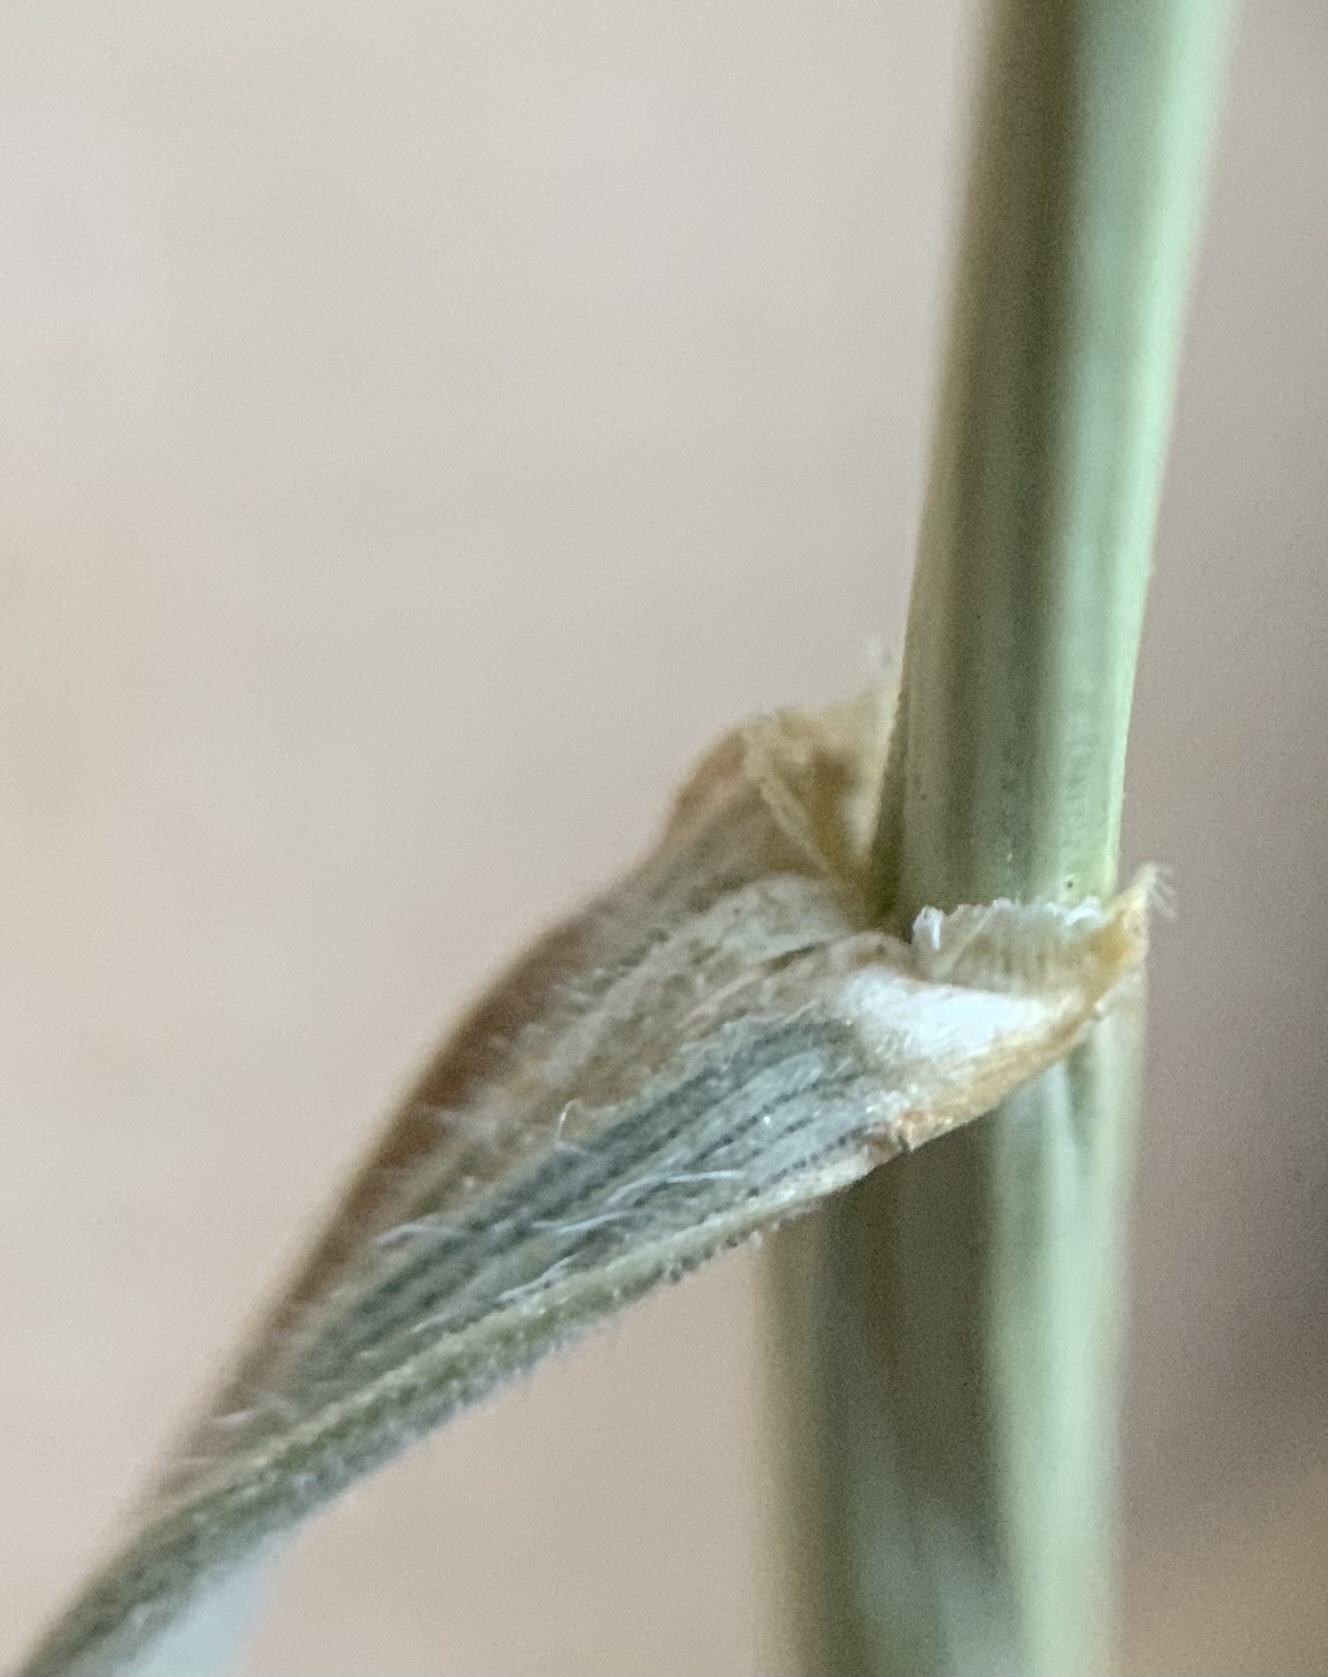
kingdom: Plantae
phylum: Tracheophyta
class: Liliopsida
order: Poales
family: Poaceae
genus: Hordeum
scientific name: Hordeum jubatum
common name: Foxtail barley
